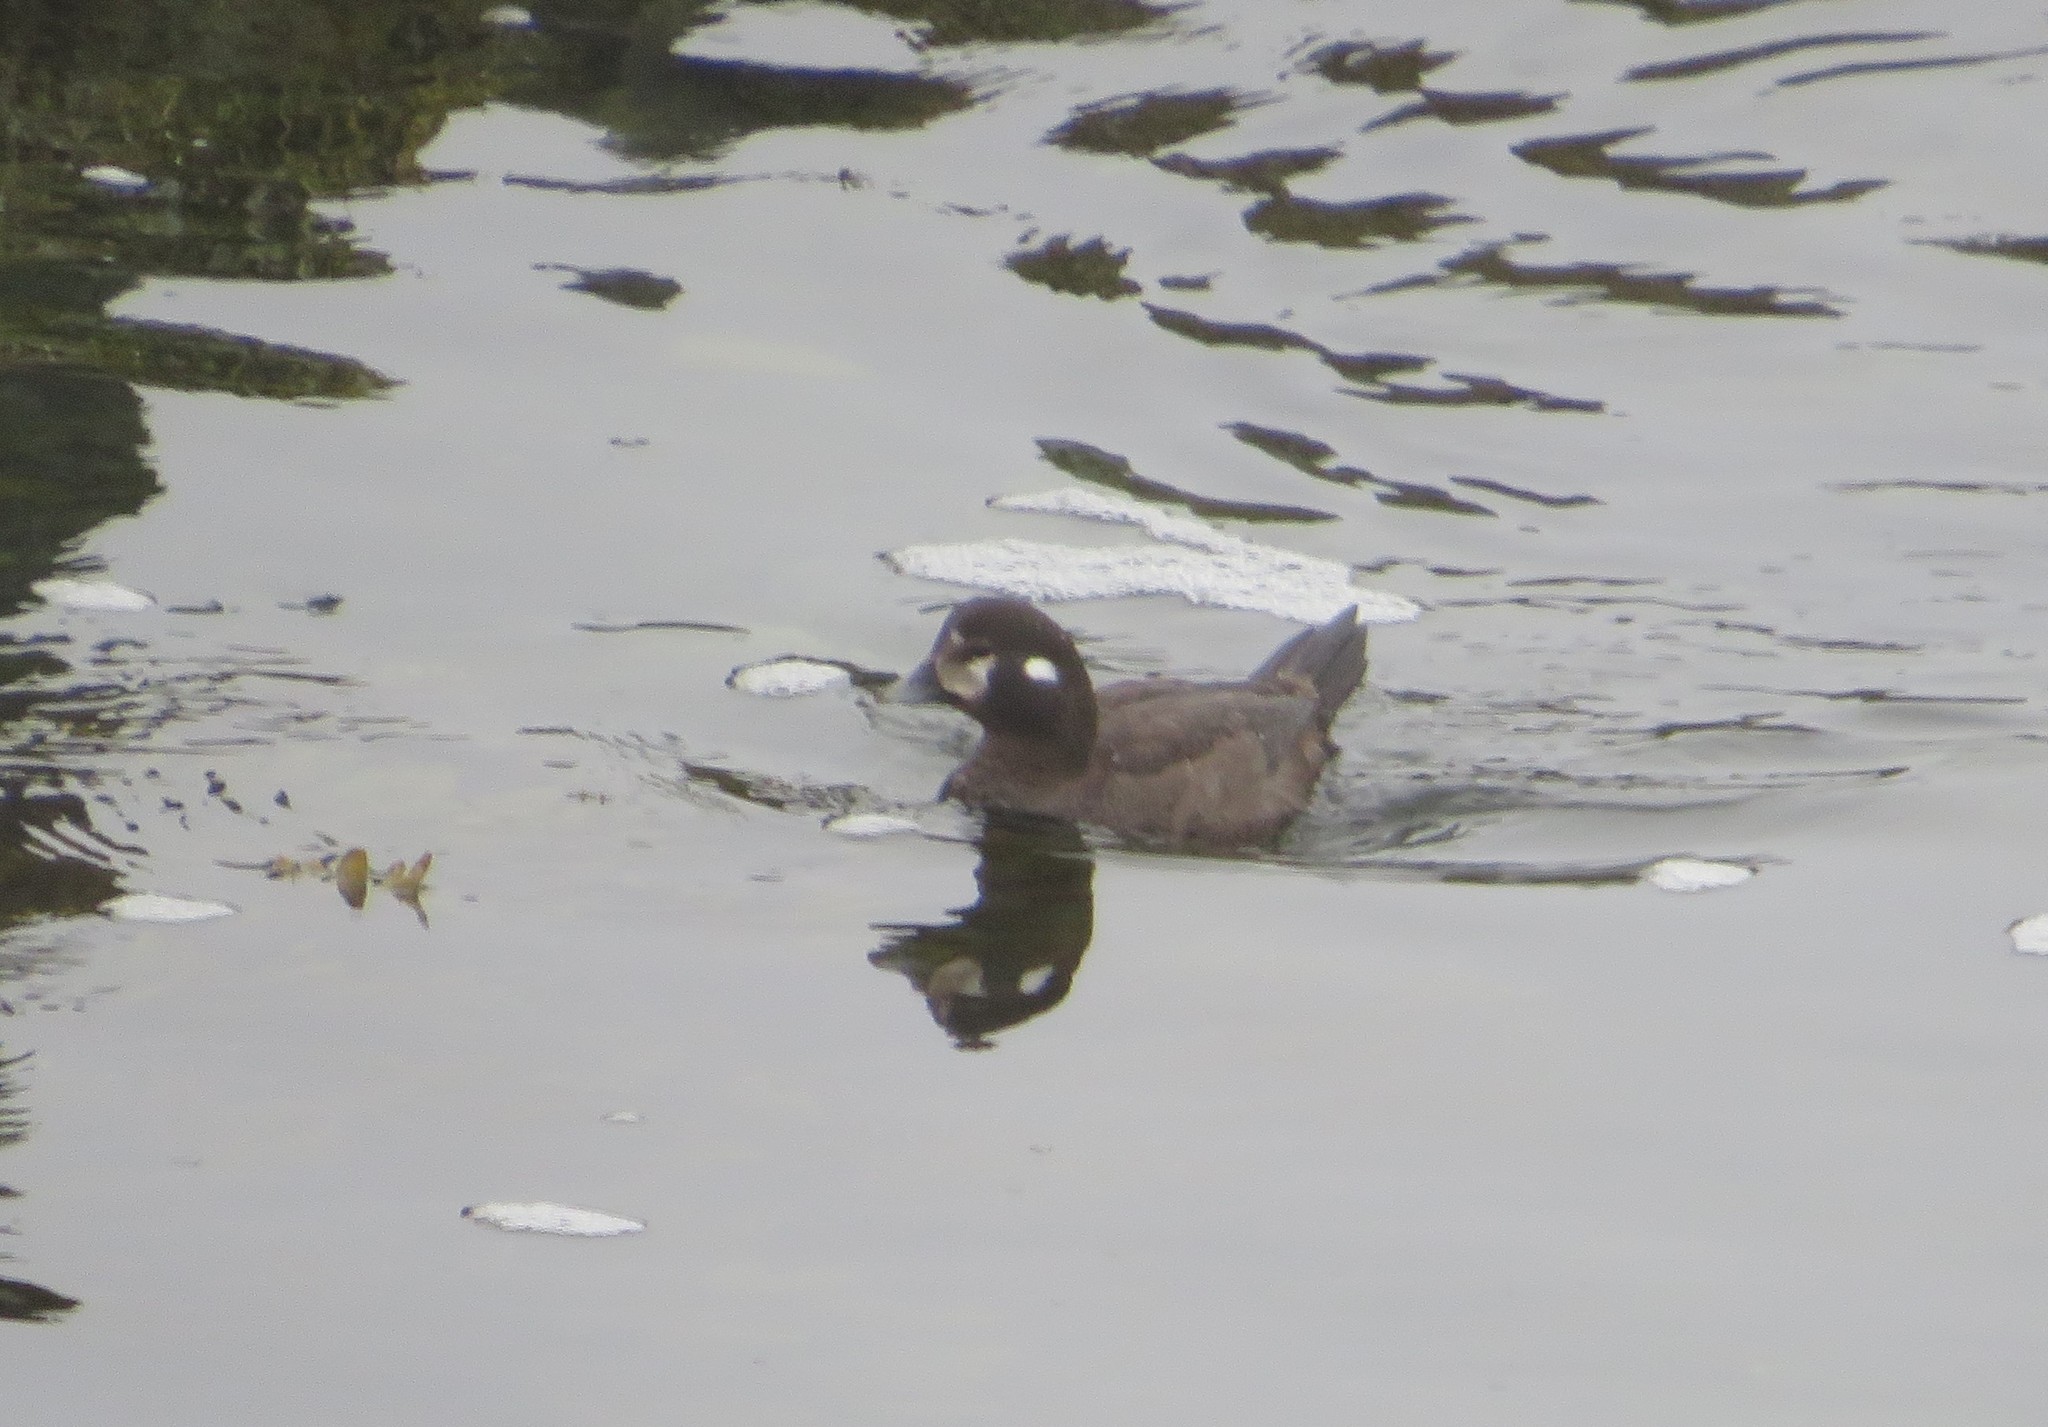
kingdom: Animalia
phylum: Chordata
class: Aves
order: Anseriformes
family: Anatidae
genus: Histrionicus
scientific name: Histrionicus histrionicus
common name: Harlequin duck
